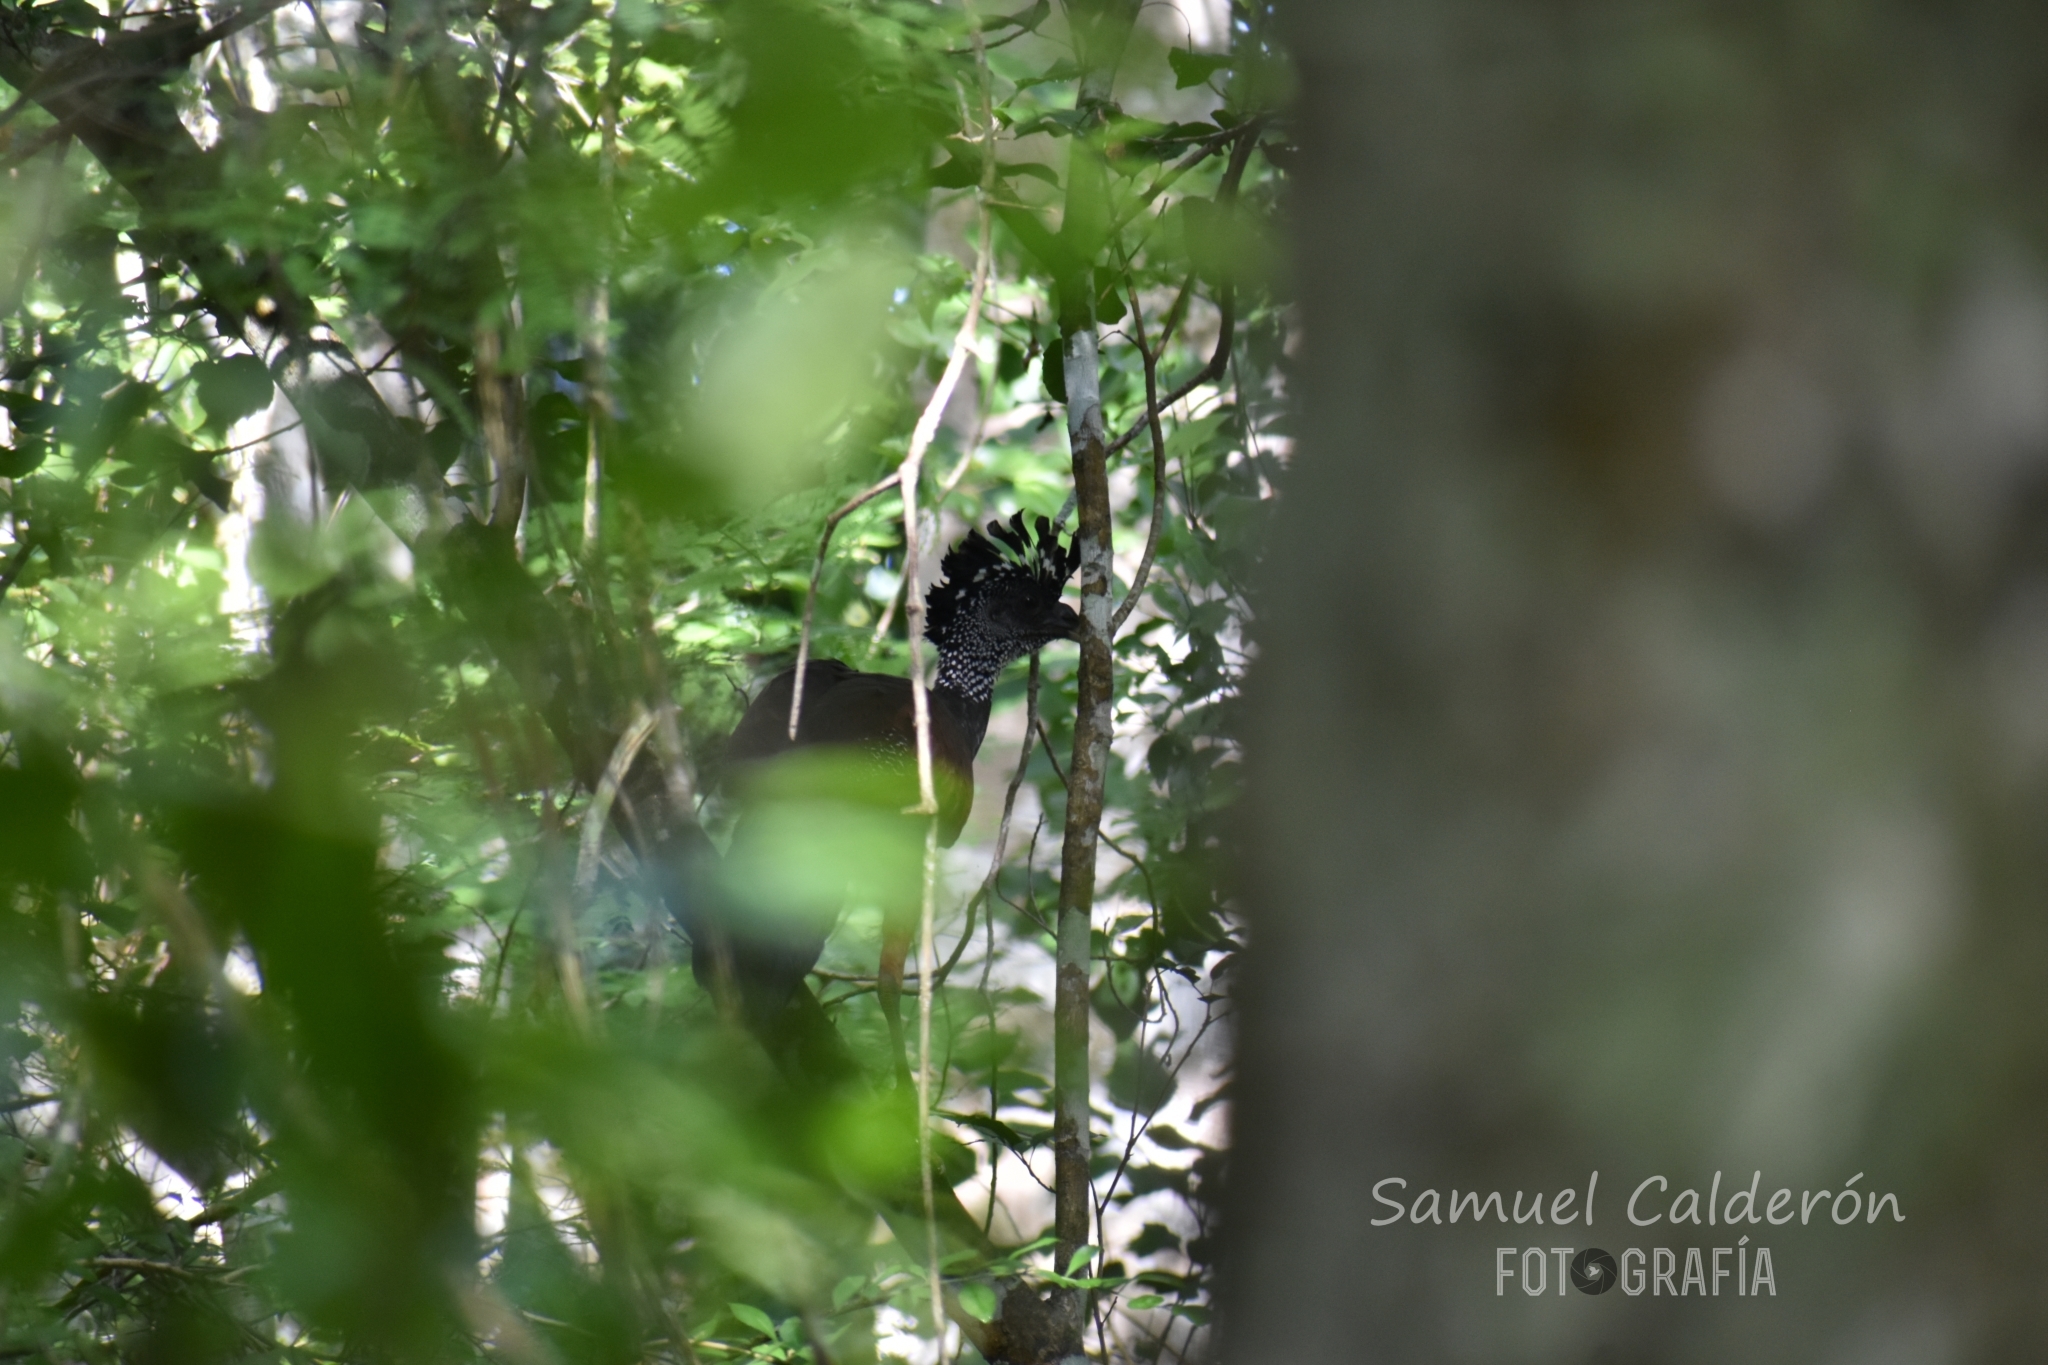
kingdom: Animalia
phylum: Chordata
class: Aves
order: Galliformes
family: Cracidae
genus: Crax
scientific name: Crax rubra
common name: Great curassow
